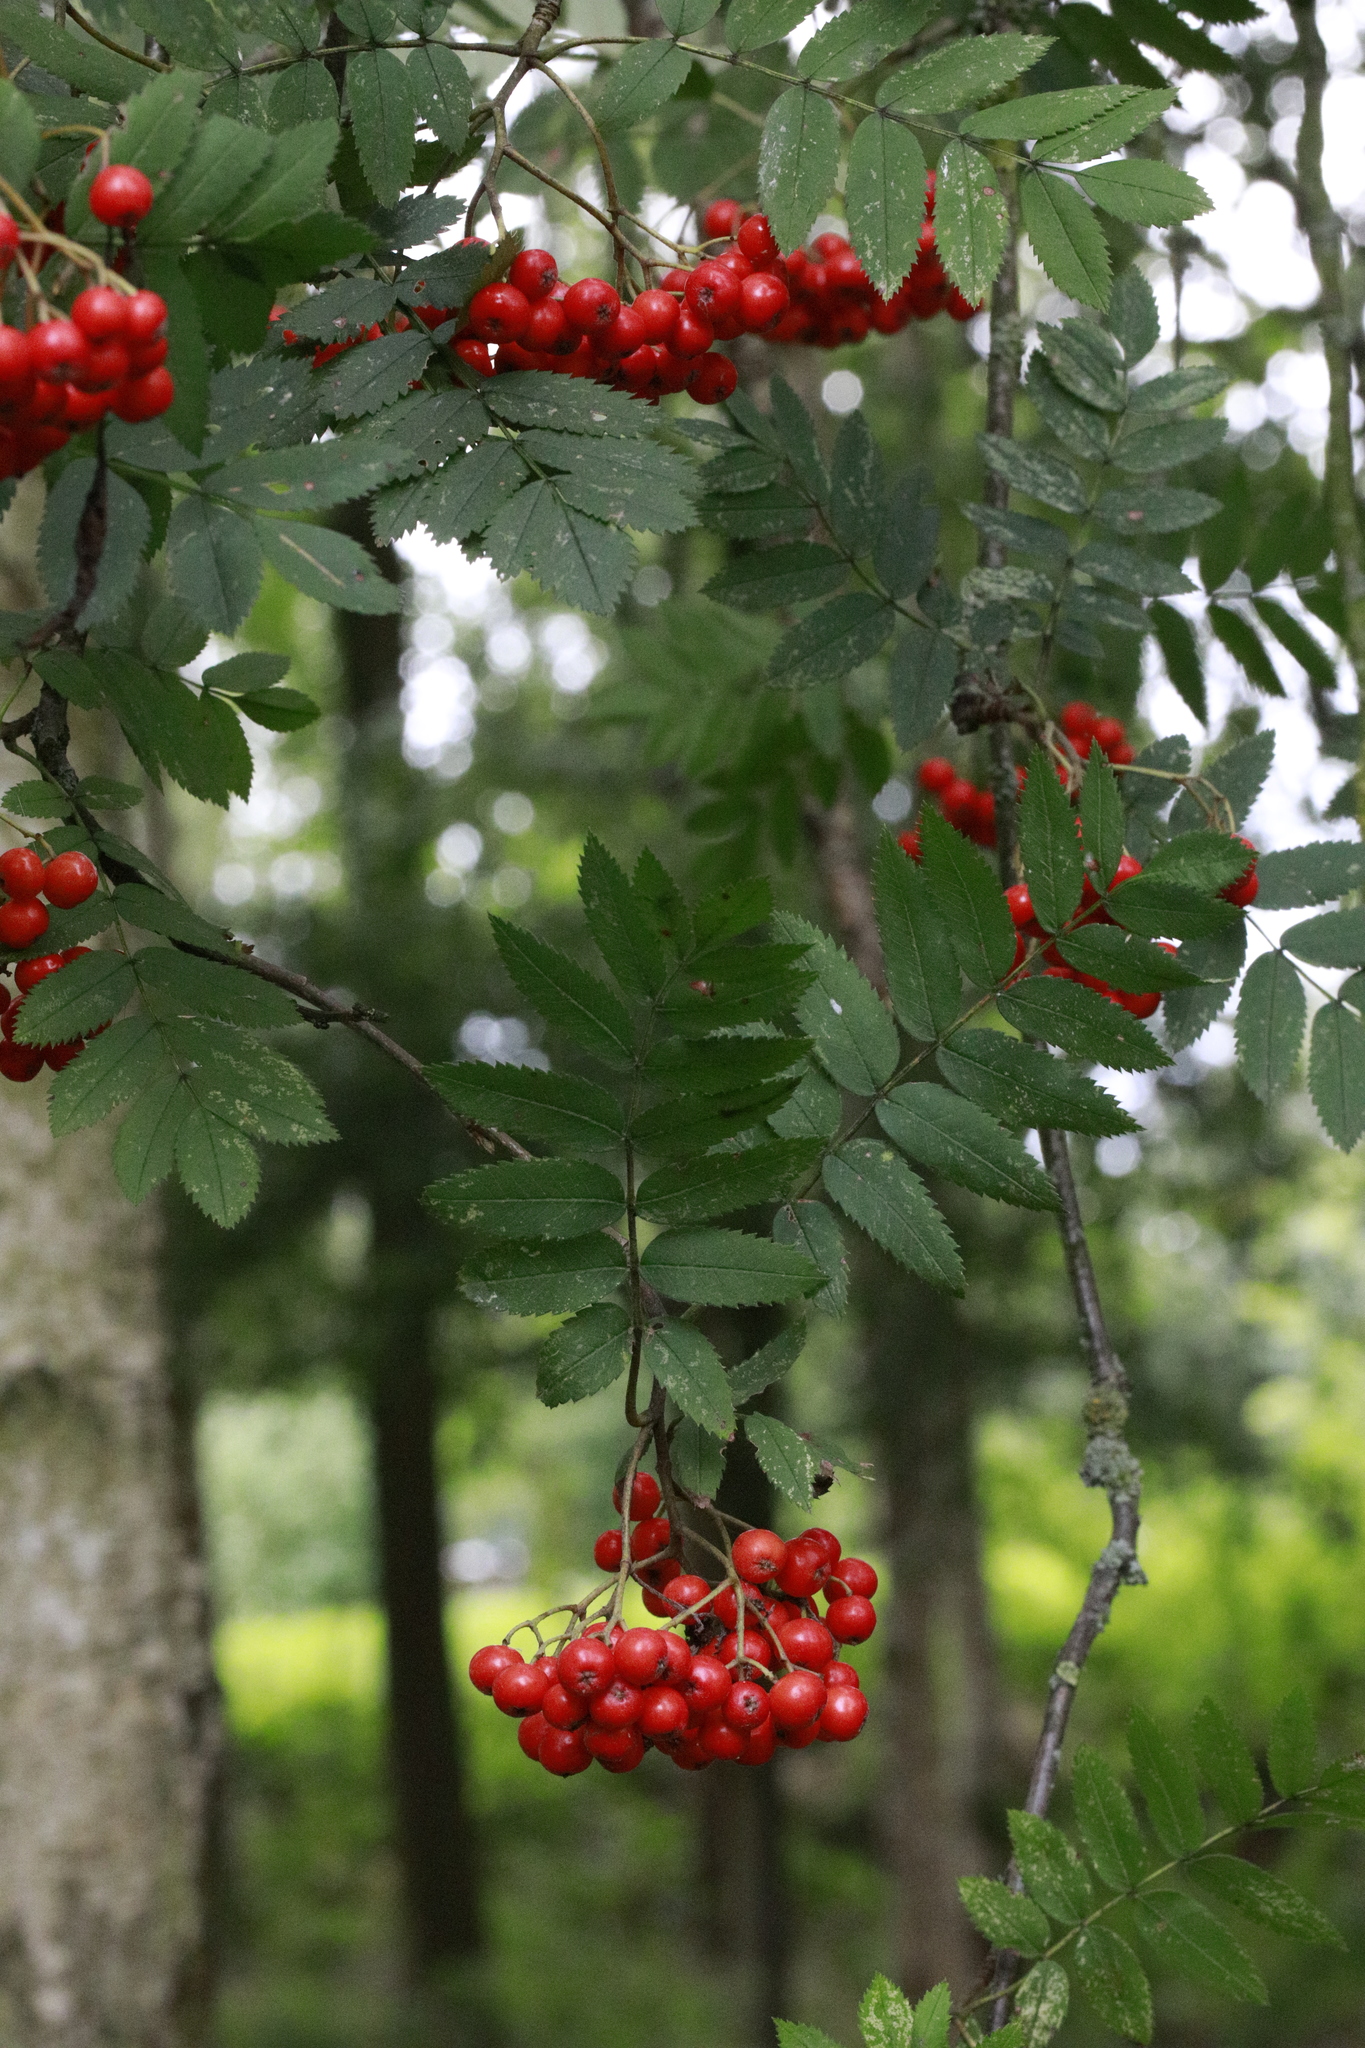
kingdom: Plantae
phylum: Tracheophyta
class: Magnoliopsida
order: Rosales
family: Rosaceae
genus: Sorbus
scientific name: Sorbus aucuparia
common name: Rowan
